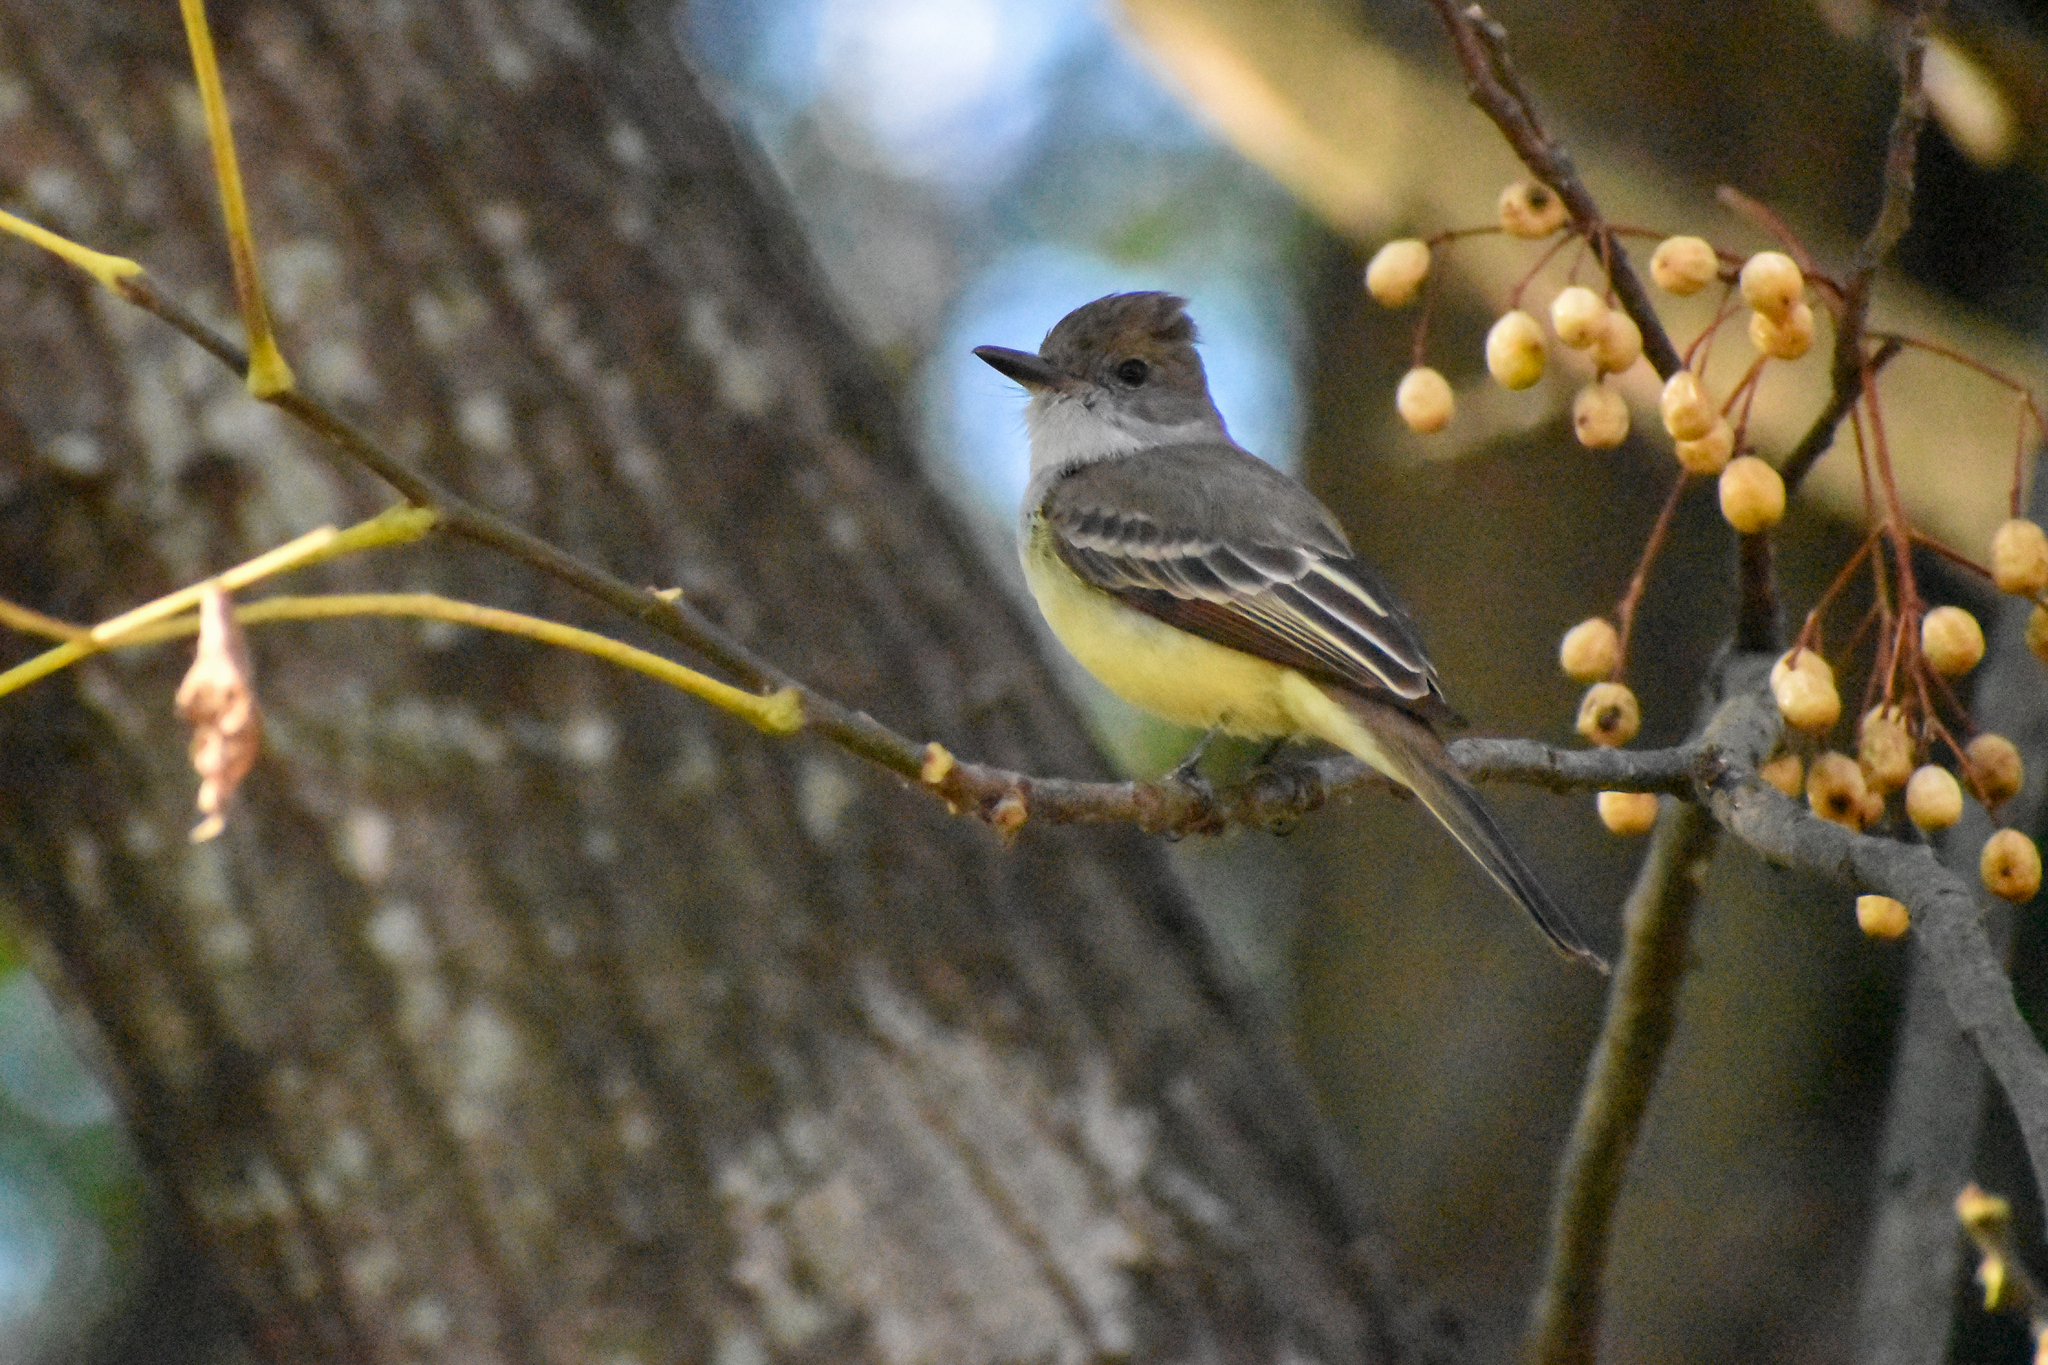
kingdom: Animalia
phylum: Chordata
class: Aves
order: Passeriformes
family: Tyrannidae
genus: Myiarchus
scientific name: Myiarchus tyrannulus
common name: Brown-crested flycatcher
